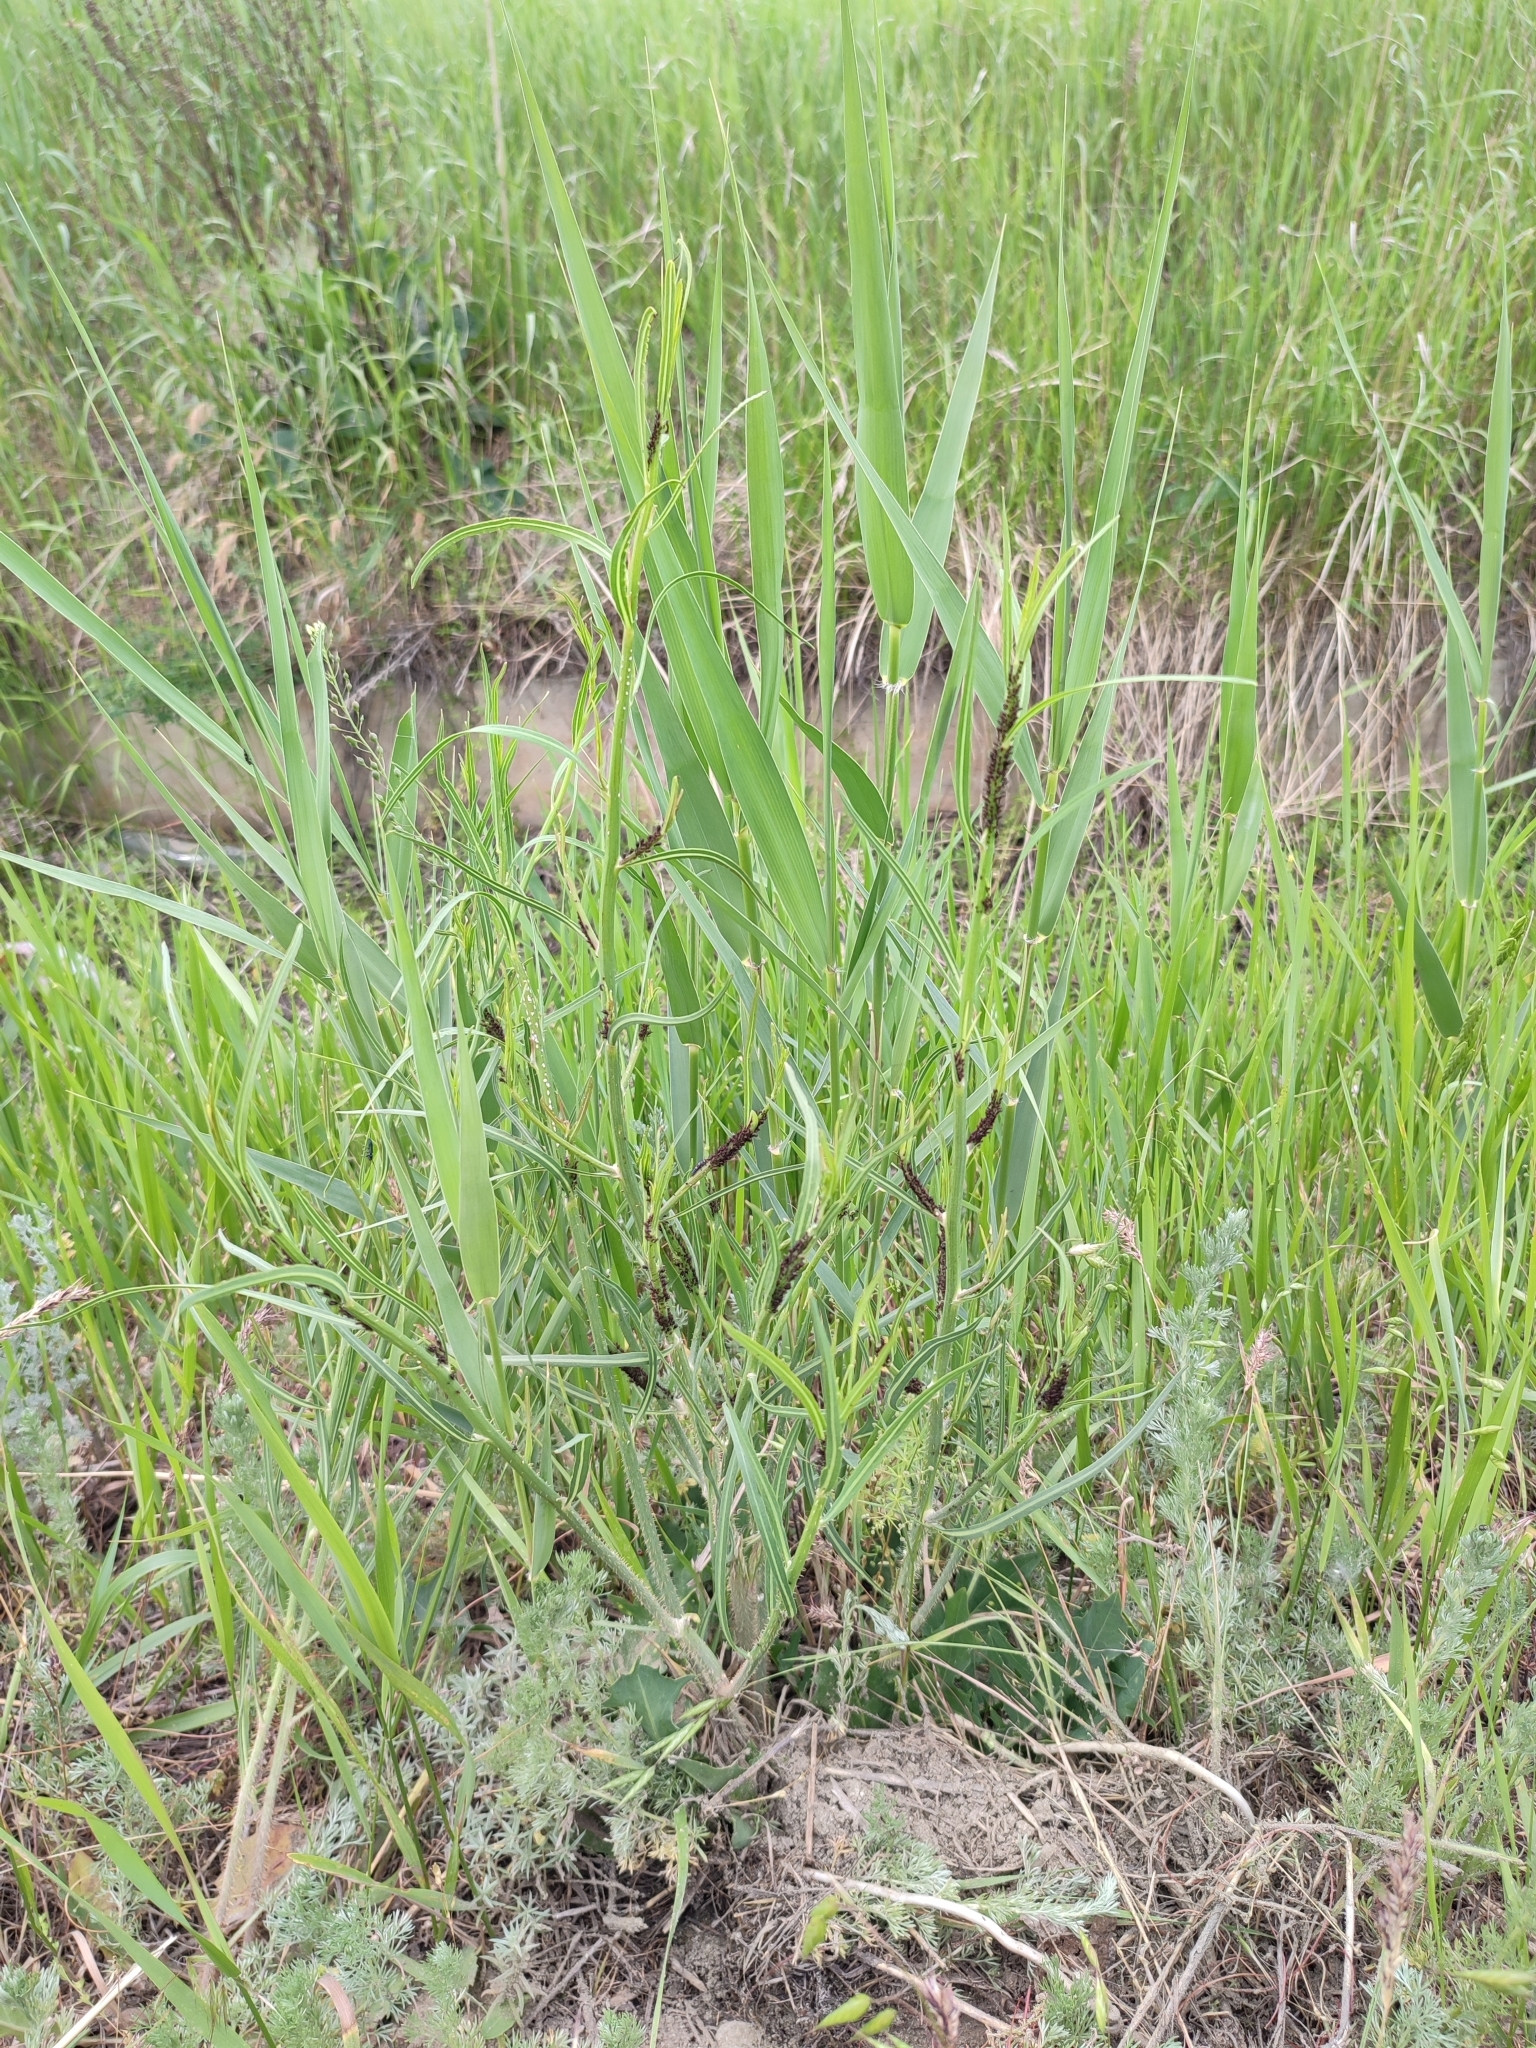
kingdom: Plantae
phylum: Tracheophyta
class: Magnoliopsida
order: Asterales
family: Asteraceae
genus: Chondrilla
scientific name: Chondrilla juncea
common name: Skeleton weed
